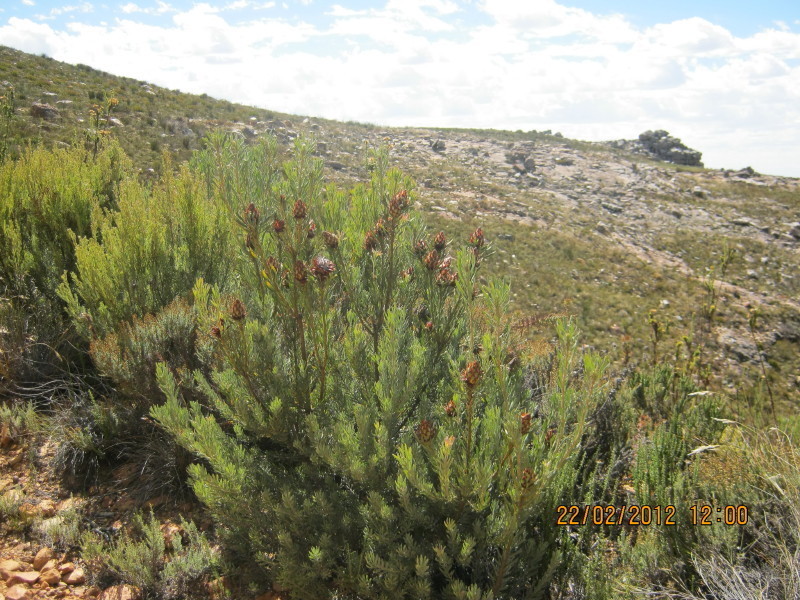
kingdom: Plantae
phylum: Tracheophyta
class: Magnoliopsida
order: Proteales
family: Proteaceae
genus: Leucadendron
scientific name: Leucadendron rubrum
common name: Spinning top
